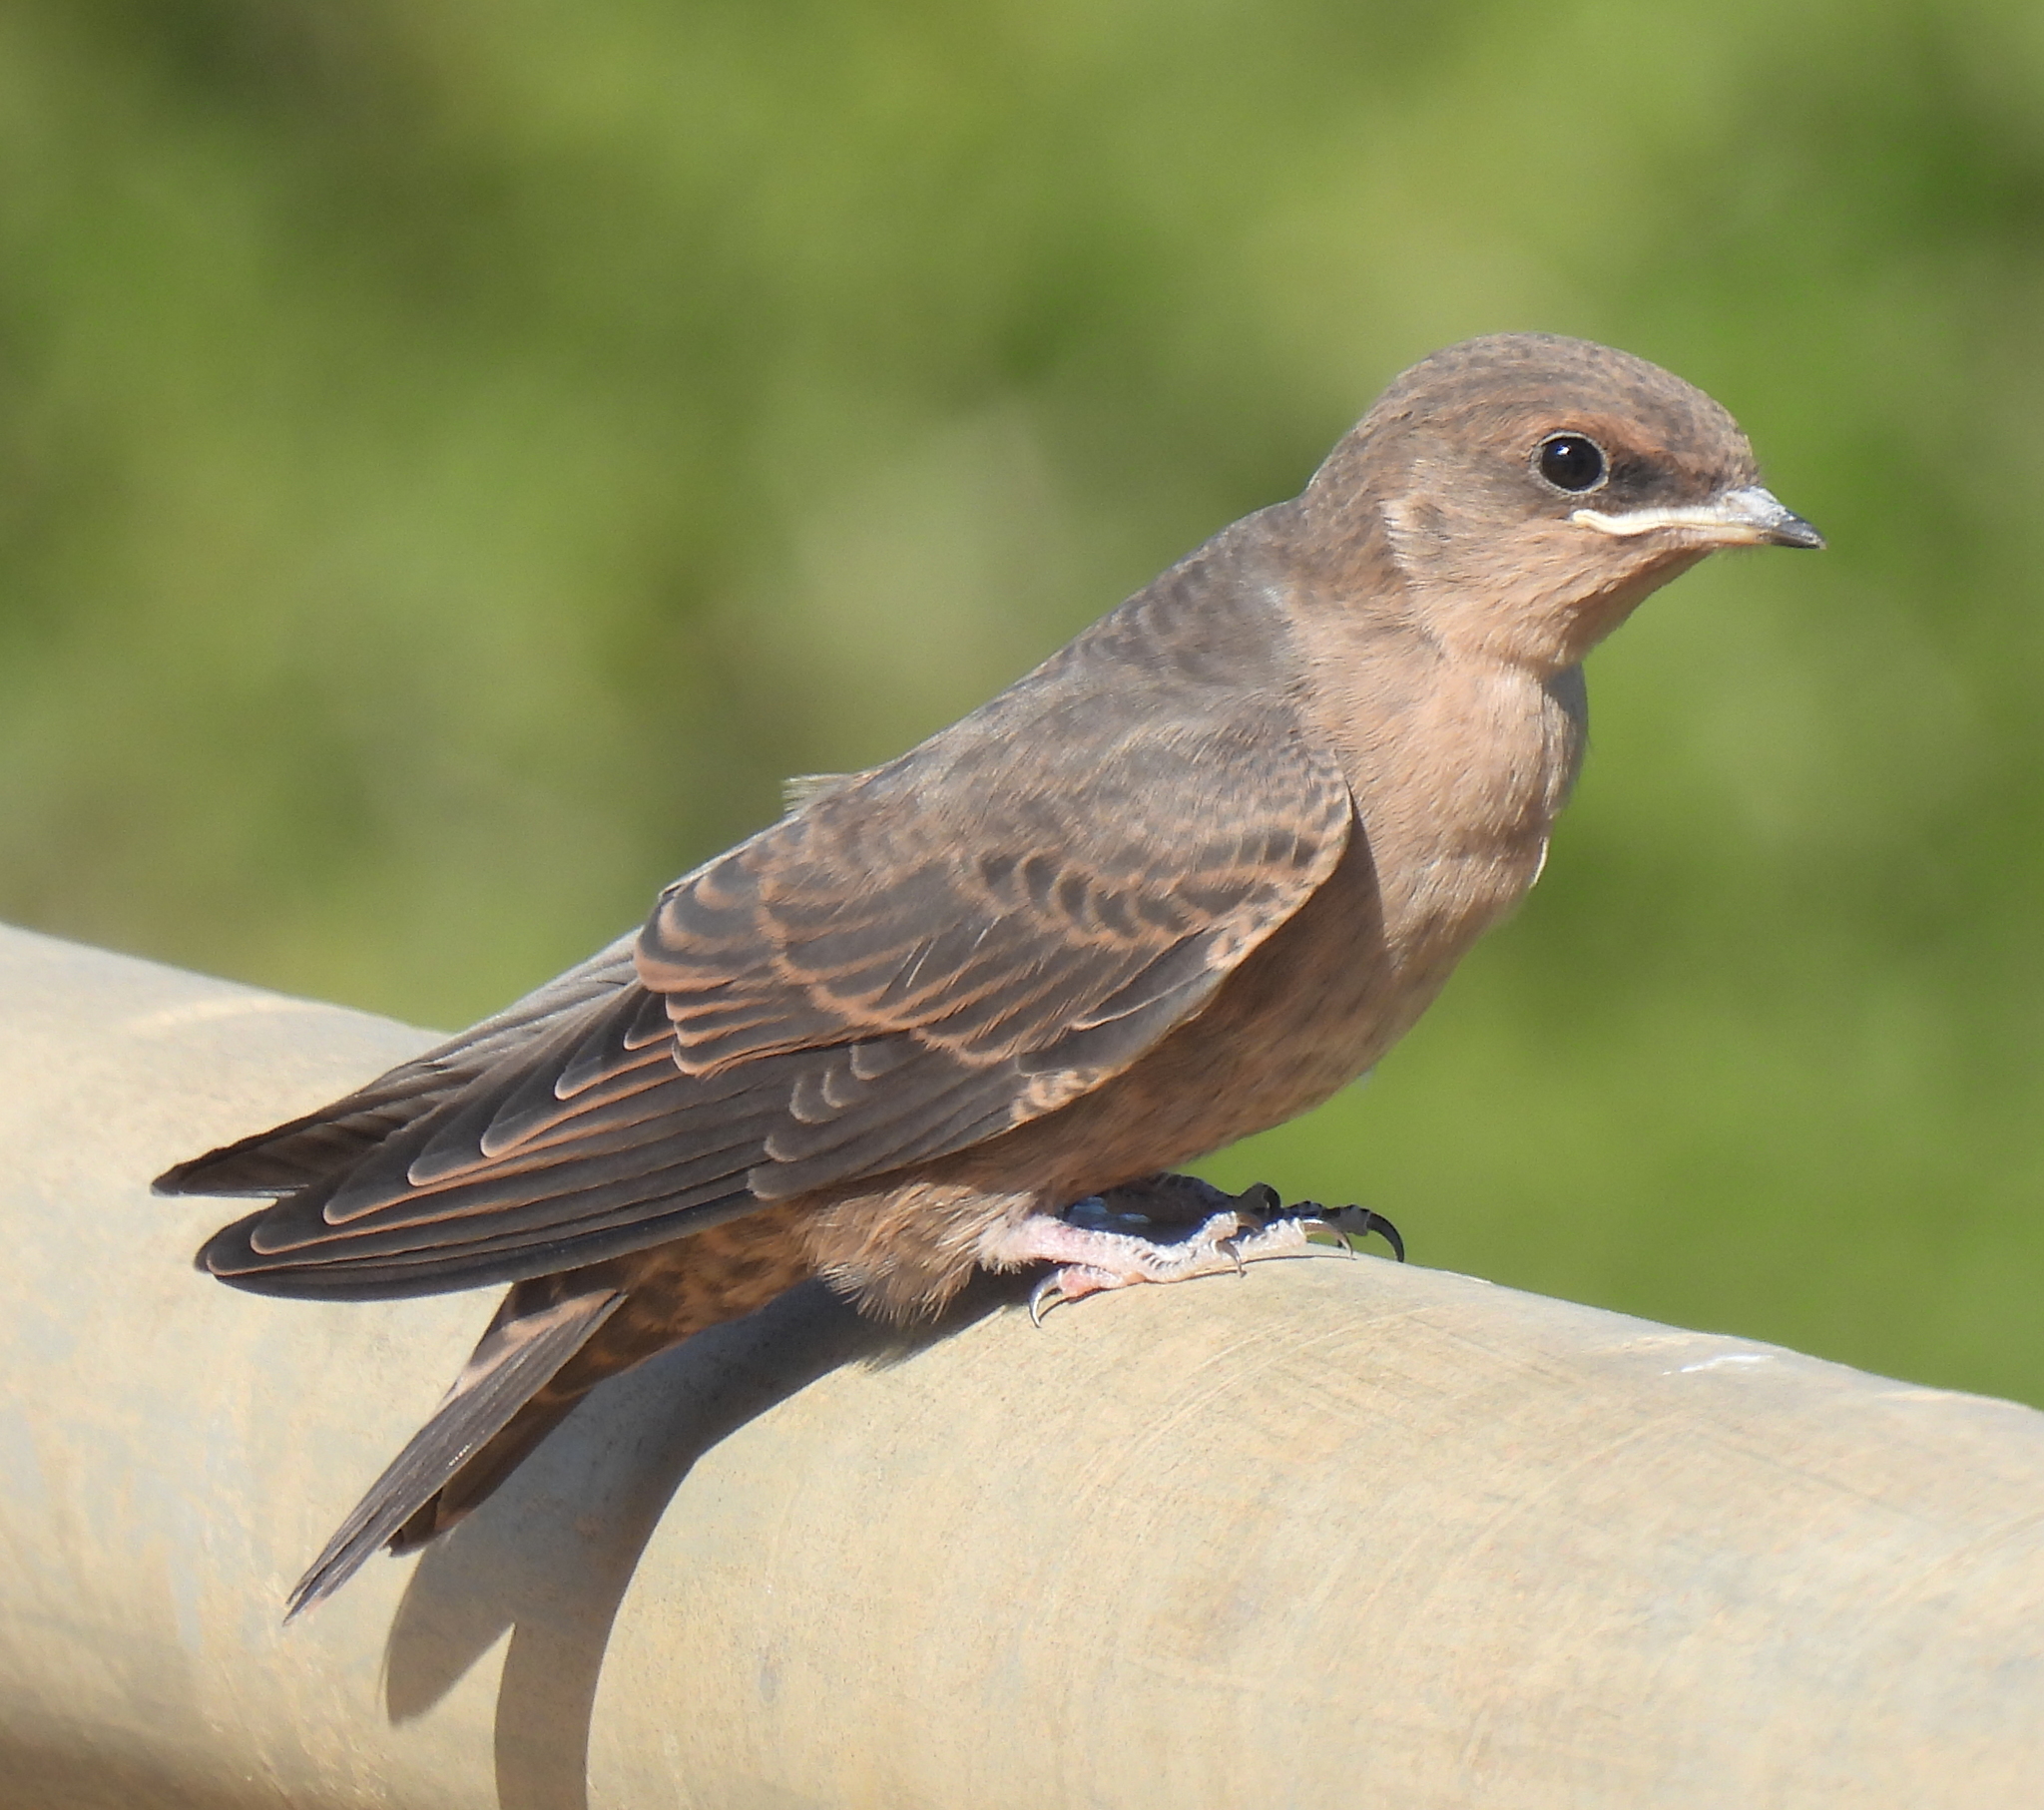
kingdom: Animalia
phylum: Chordata
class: Aves
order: Passeriformes
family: Hirundinidae
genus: Ptyonoprogne
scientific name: Ptyonoprogne fuligula
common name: Rock martin
